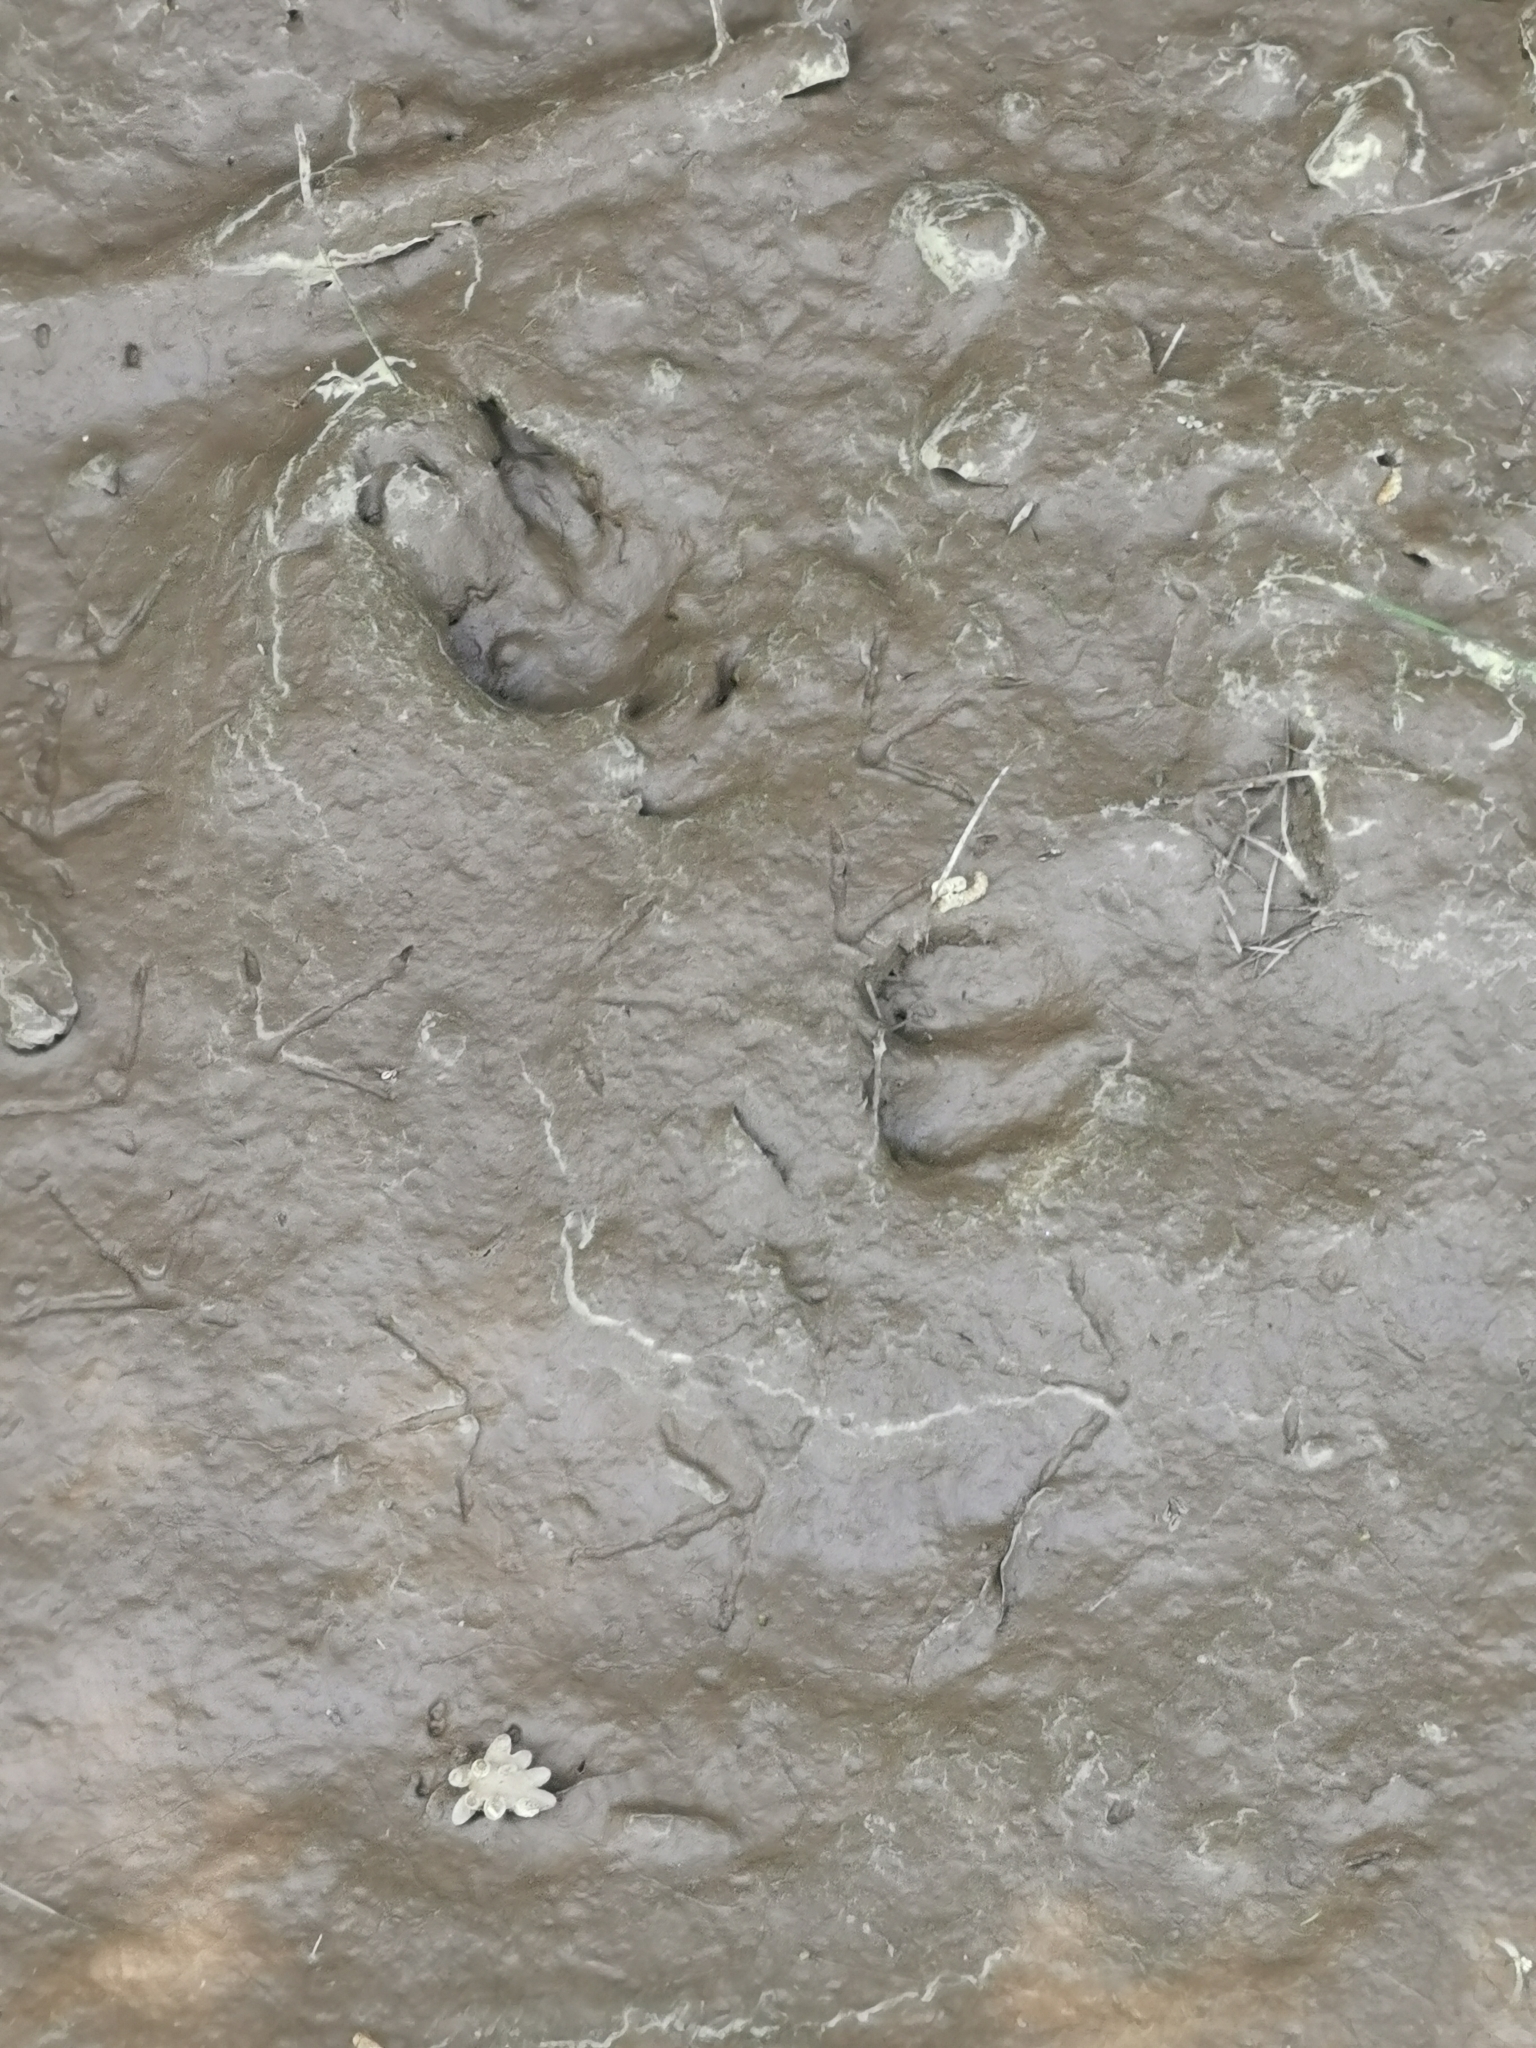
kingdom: Animalia
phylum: Chordata
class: Mammalia
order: Artiodactyla
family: Suidae
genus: Sus
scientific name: Sus scrofa
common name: Wild boar
